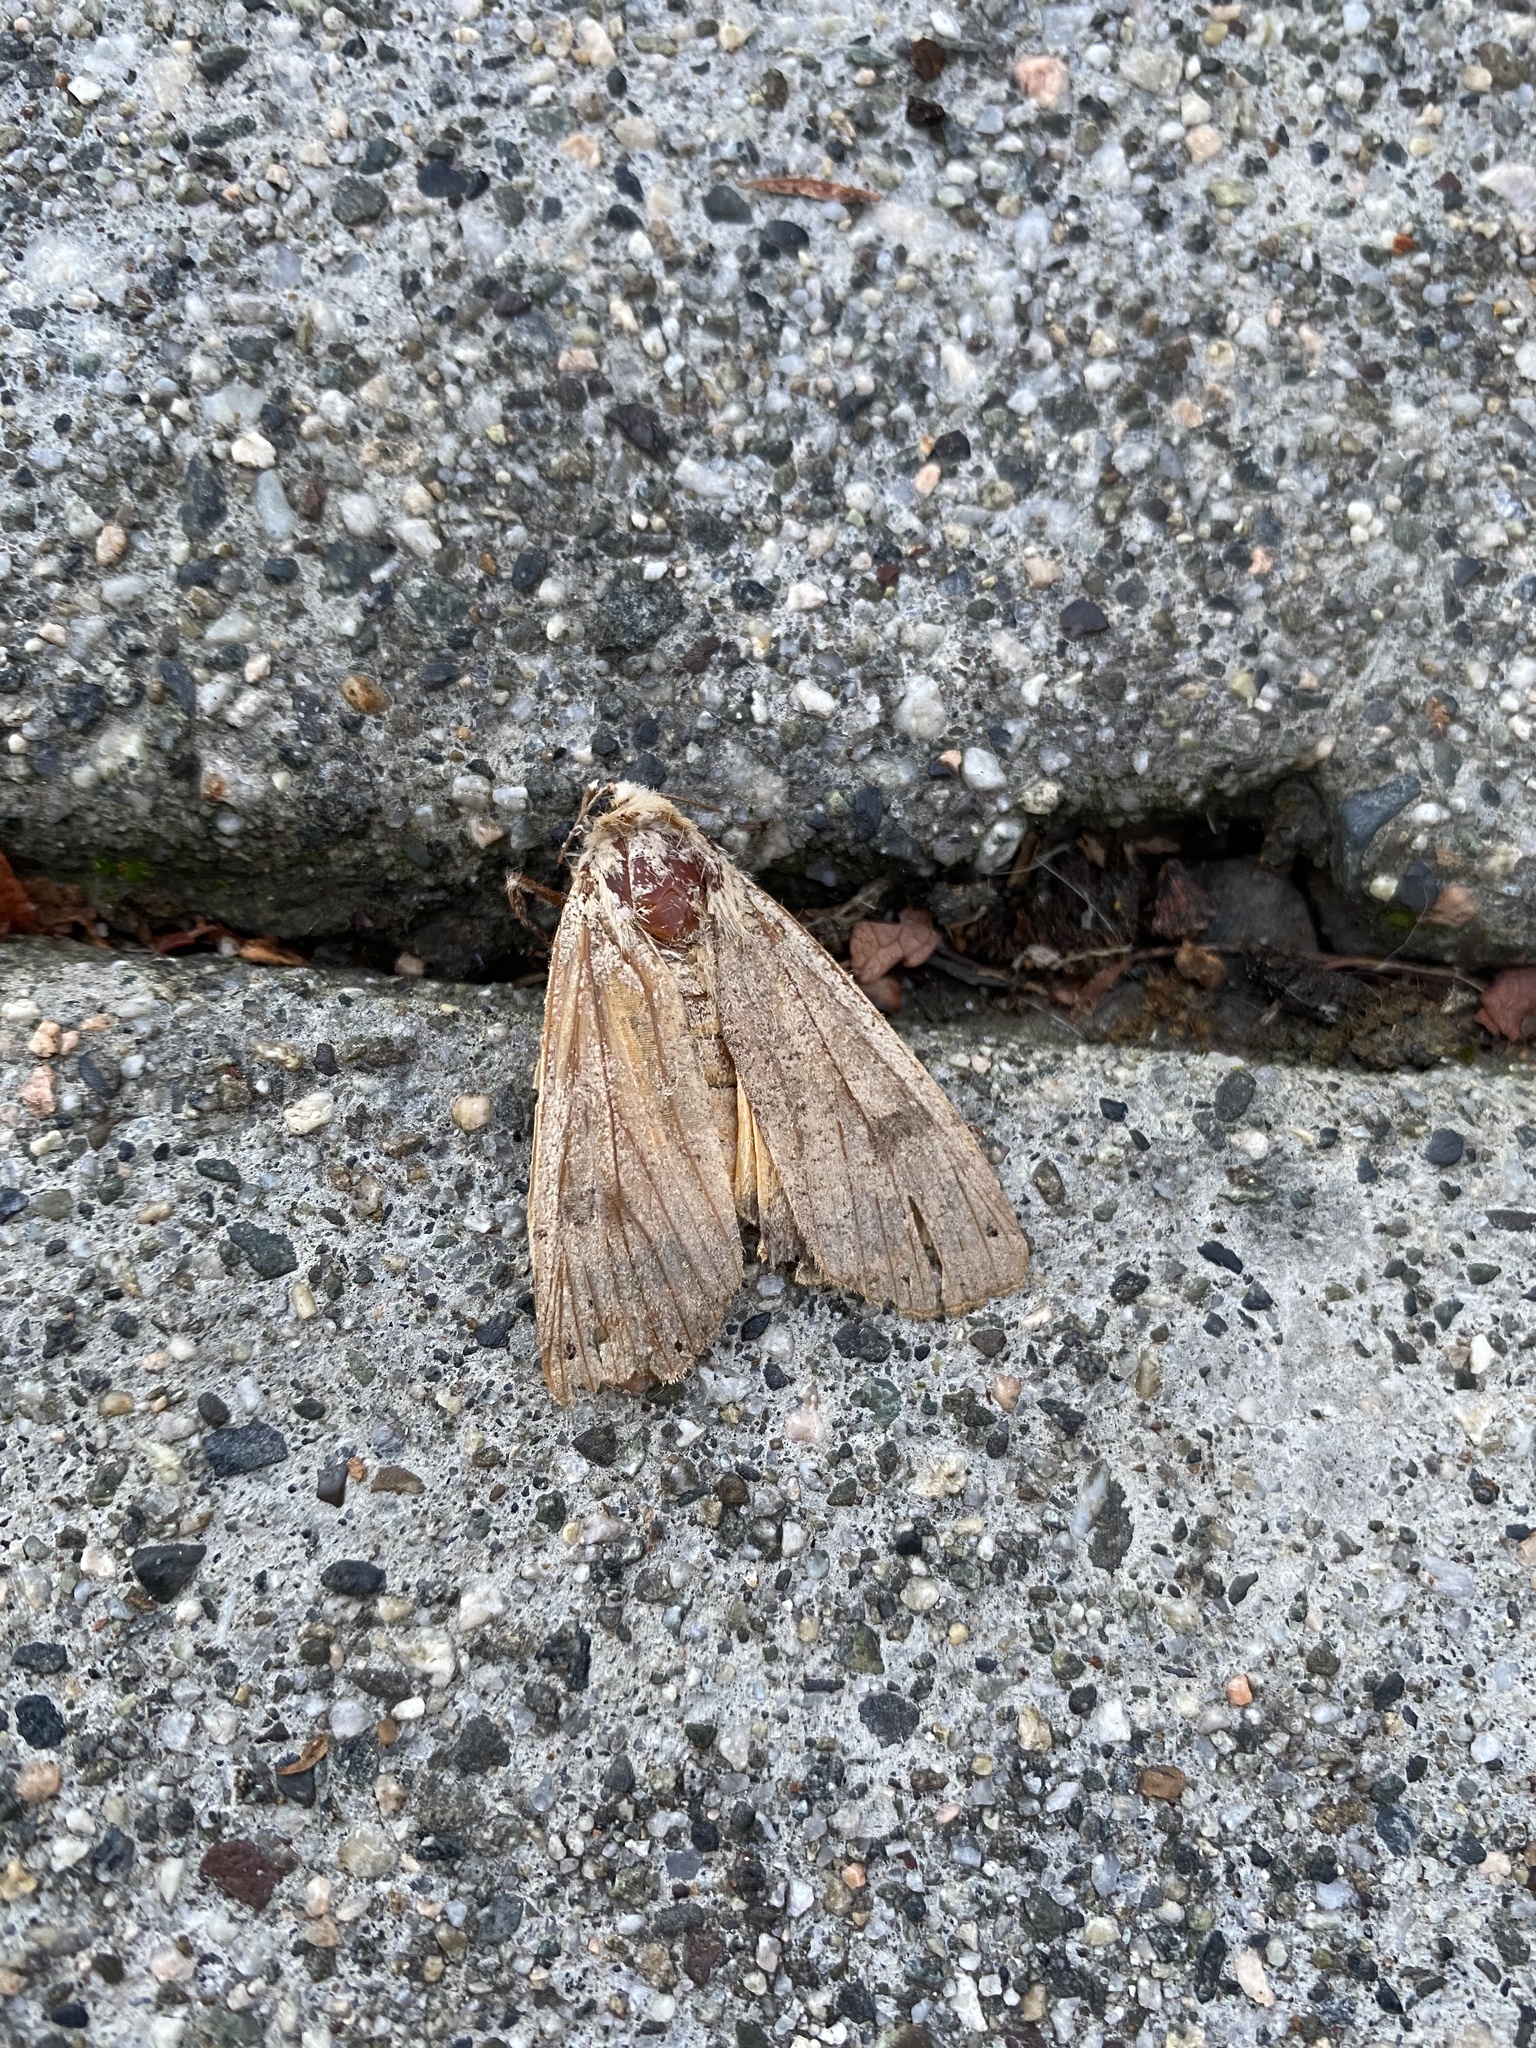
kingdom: Animalia
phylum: Arthropoda
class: Insecta
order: Lepidoptera
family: Noctuidae
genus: Noctua
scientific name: Noctua pronuba
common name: Large yellow underwing
